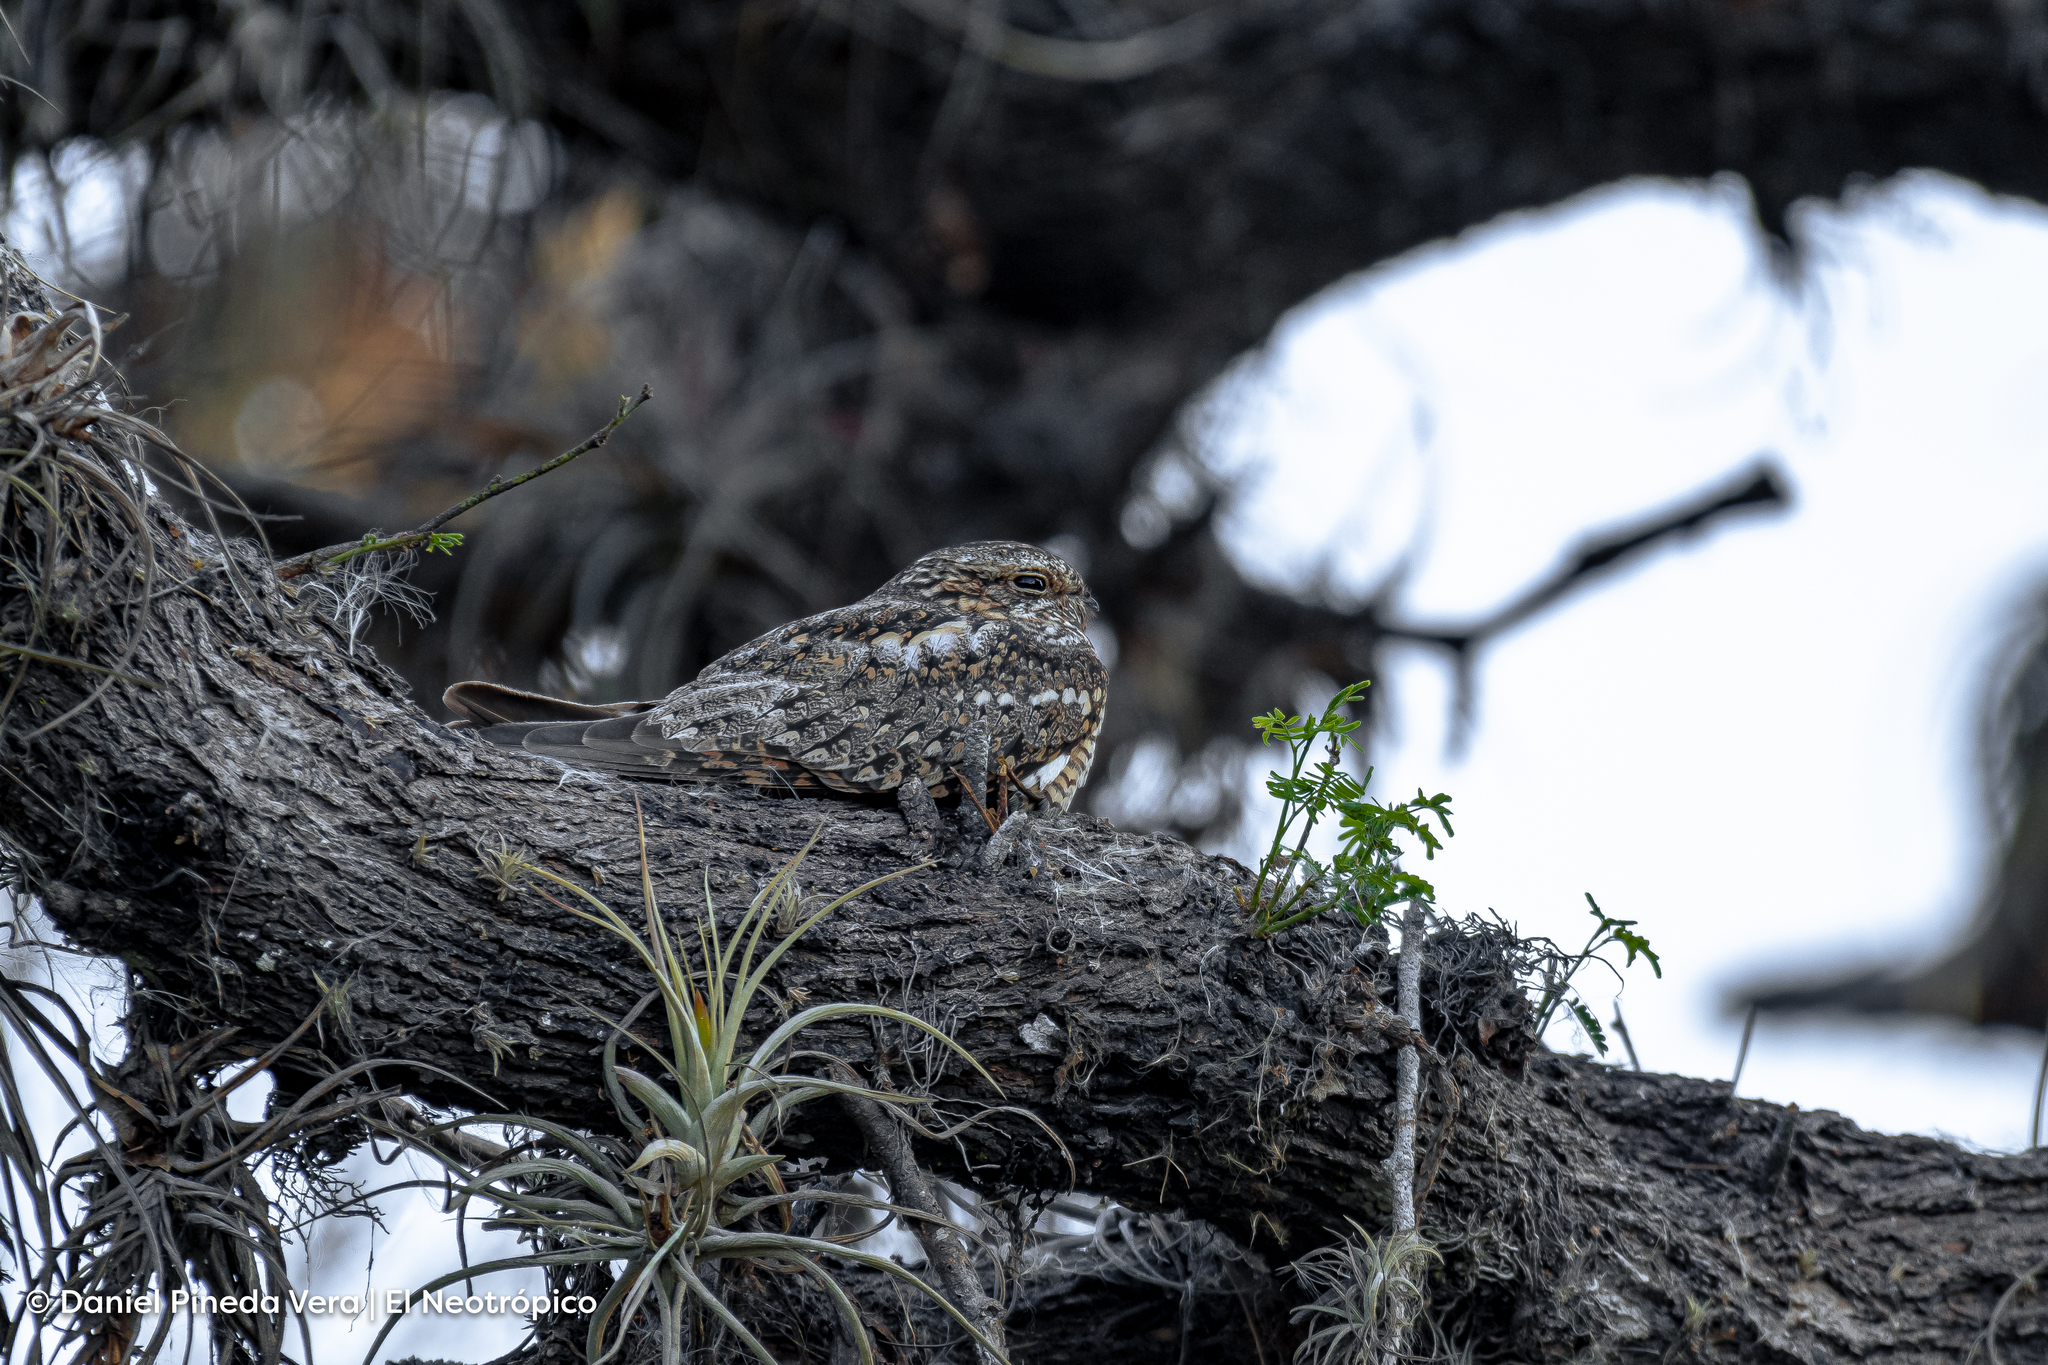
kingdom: Animalia
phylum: Chordata
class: Aves
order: Caprimulgiformes
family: Caprimulgidae
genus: Chordeiles
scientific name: Chordeiles acutipennis
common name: Lesser nighthawk
